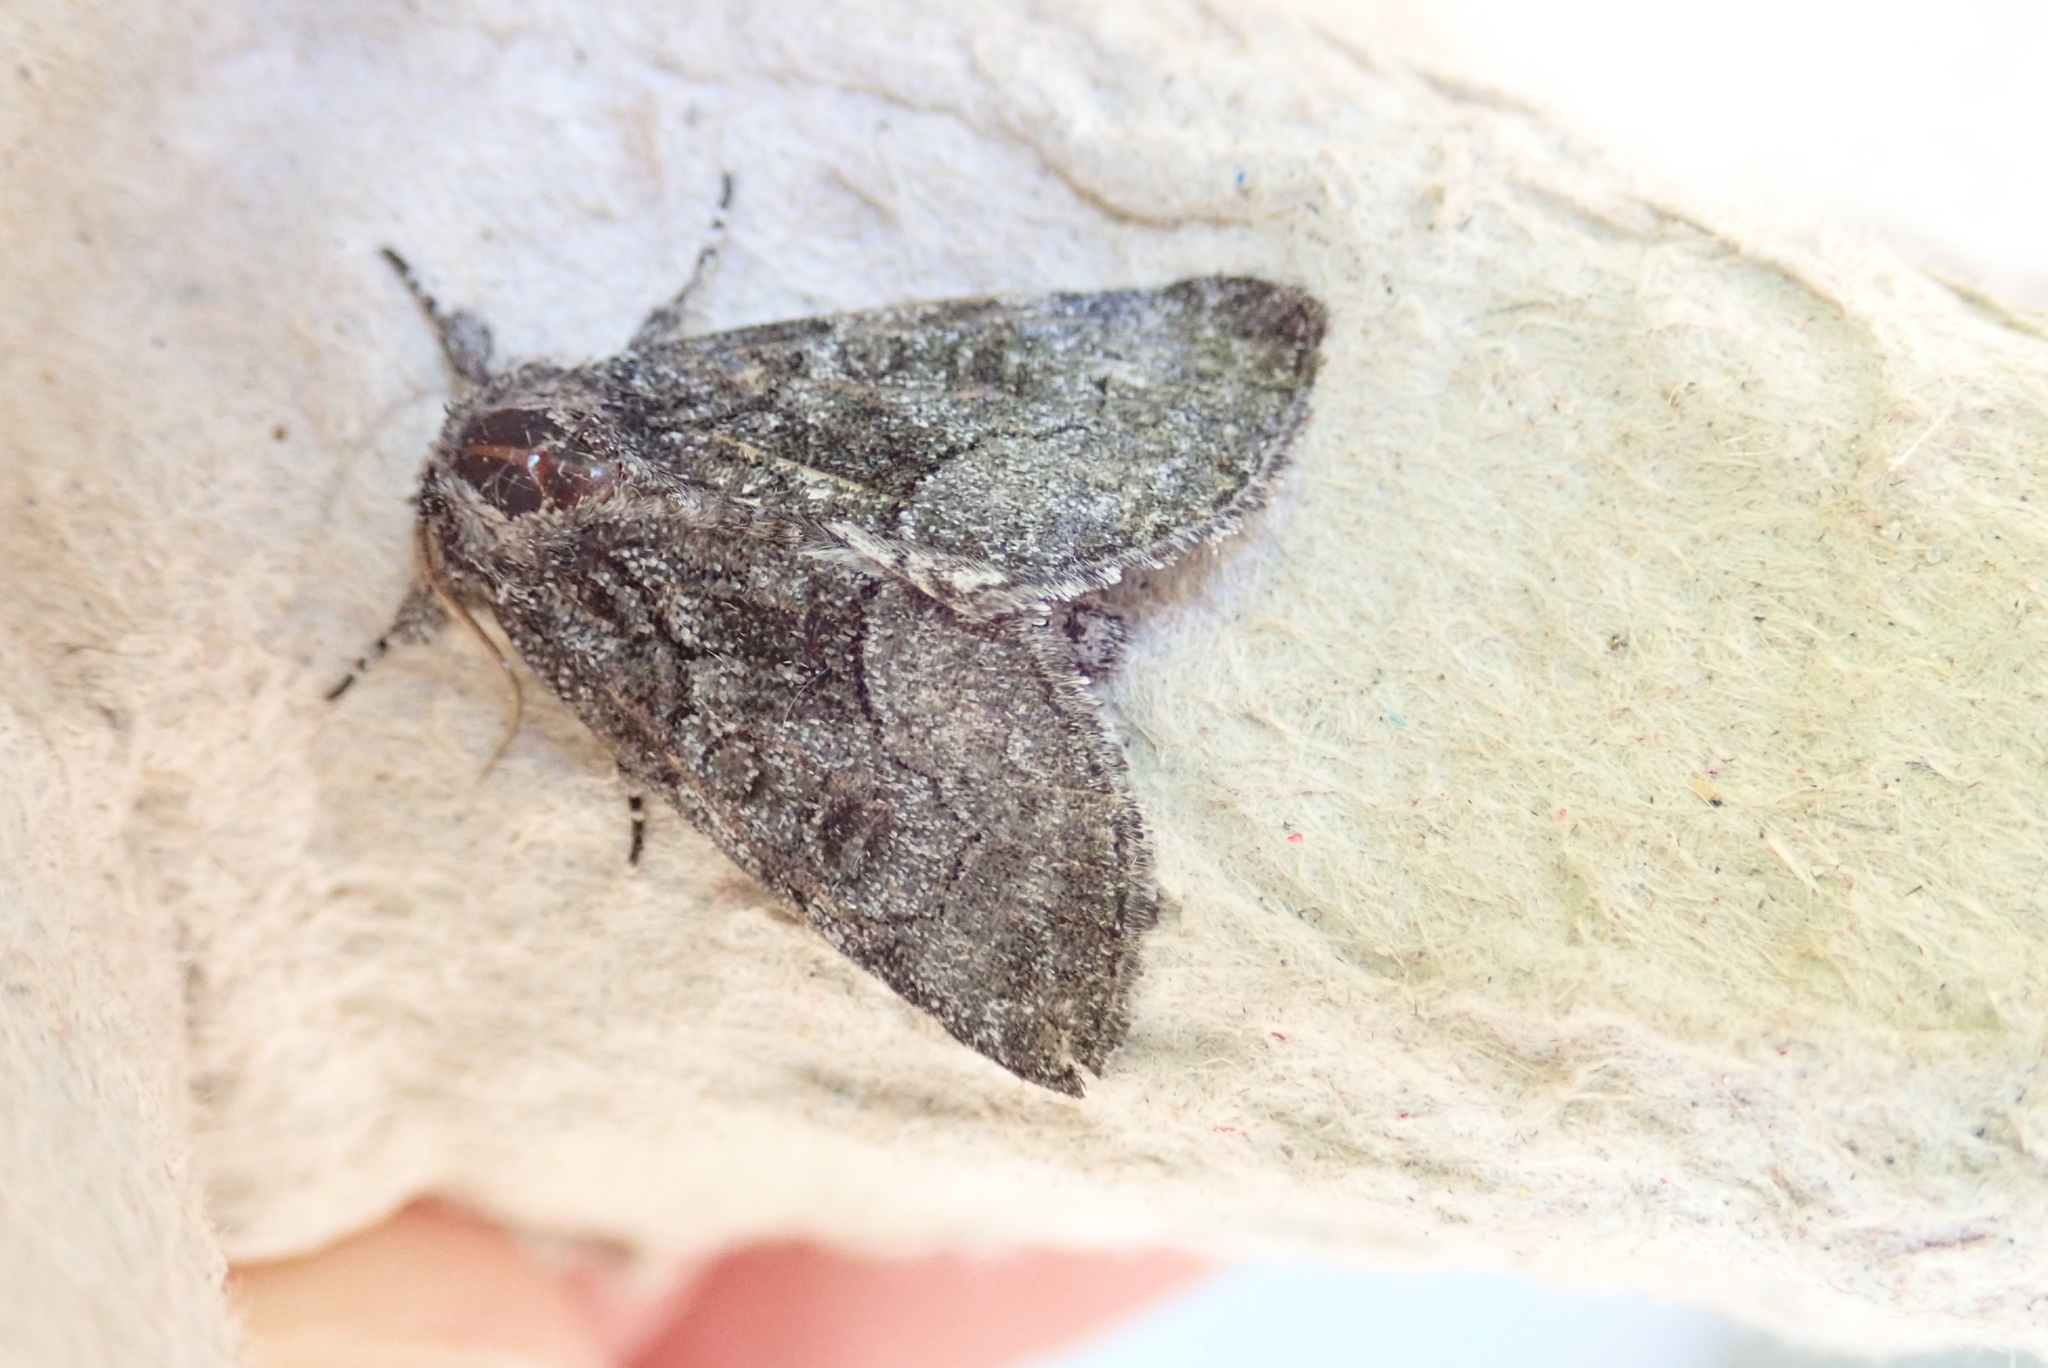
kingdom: Animalia
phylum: Arthropoda
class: Insecta
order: Lepidoptera
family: Noctuidae
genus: Raphia
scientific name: Raphia frater
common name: Brother
